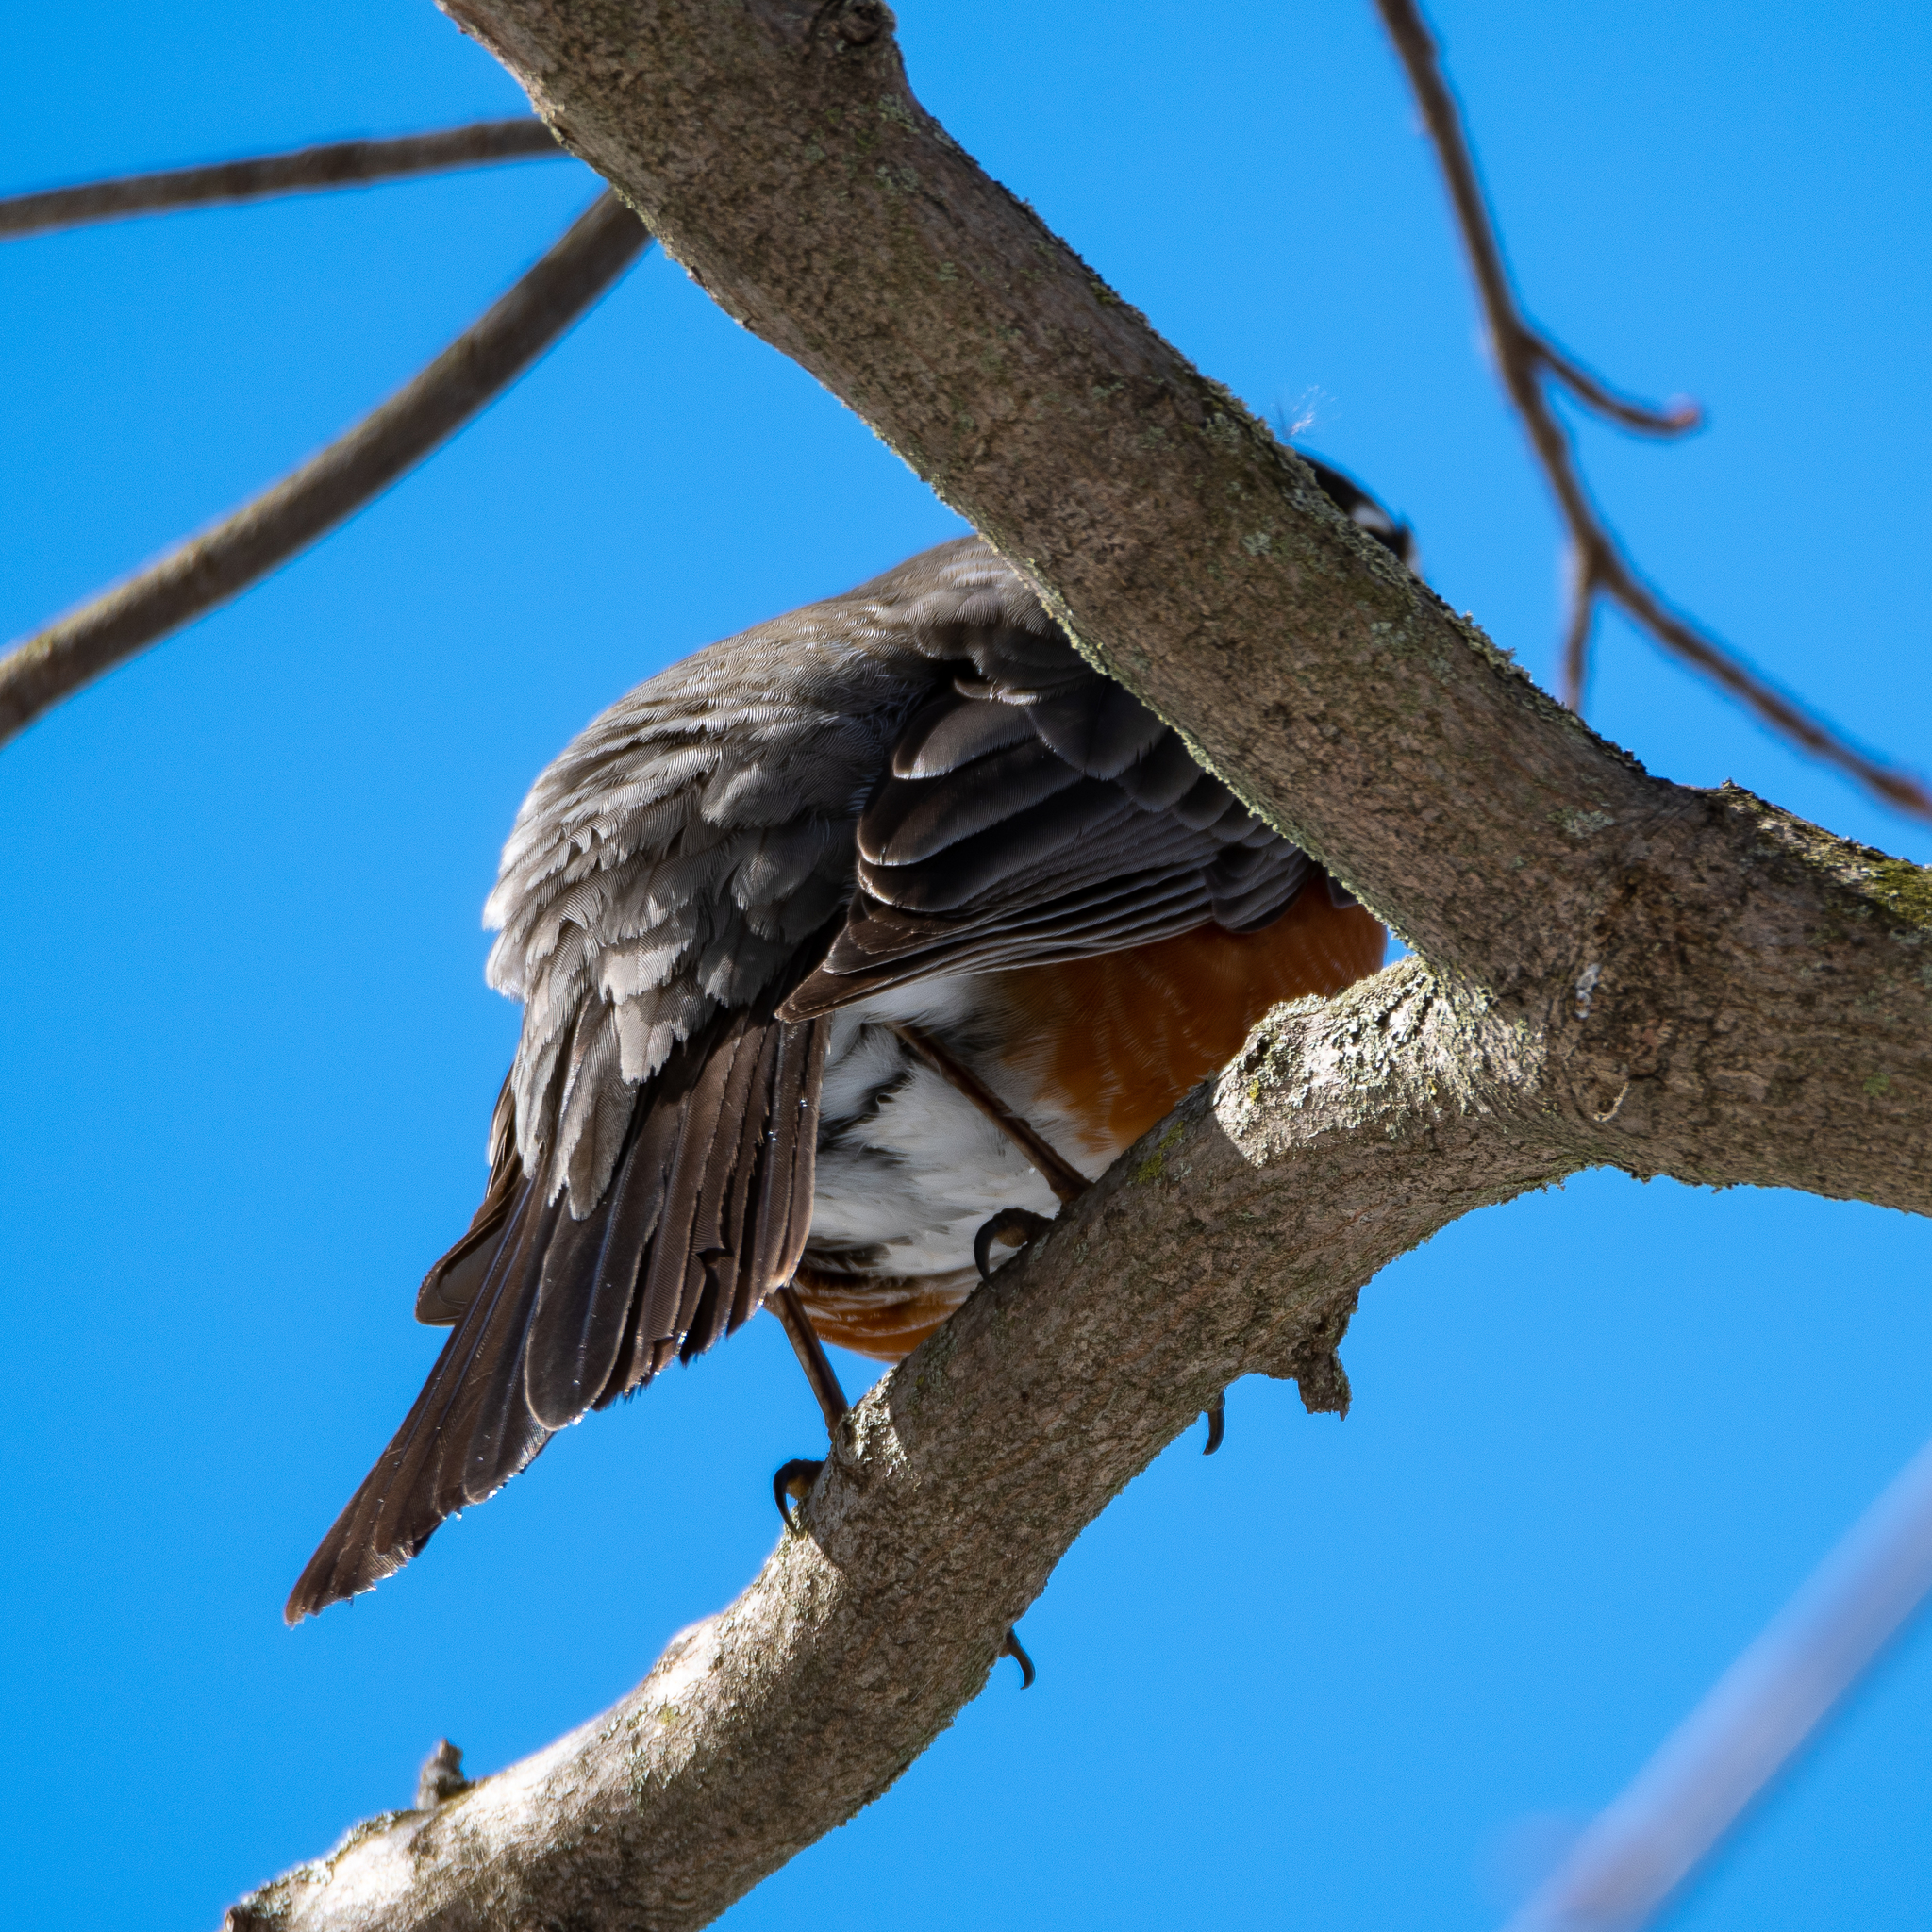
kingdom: Animalia
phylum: Chordata
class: Aves
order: Passeriformes
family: Turdidae
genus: Turdus
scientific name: Turdus migratorius
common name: American robin
